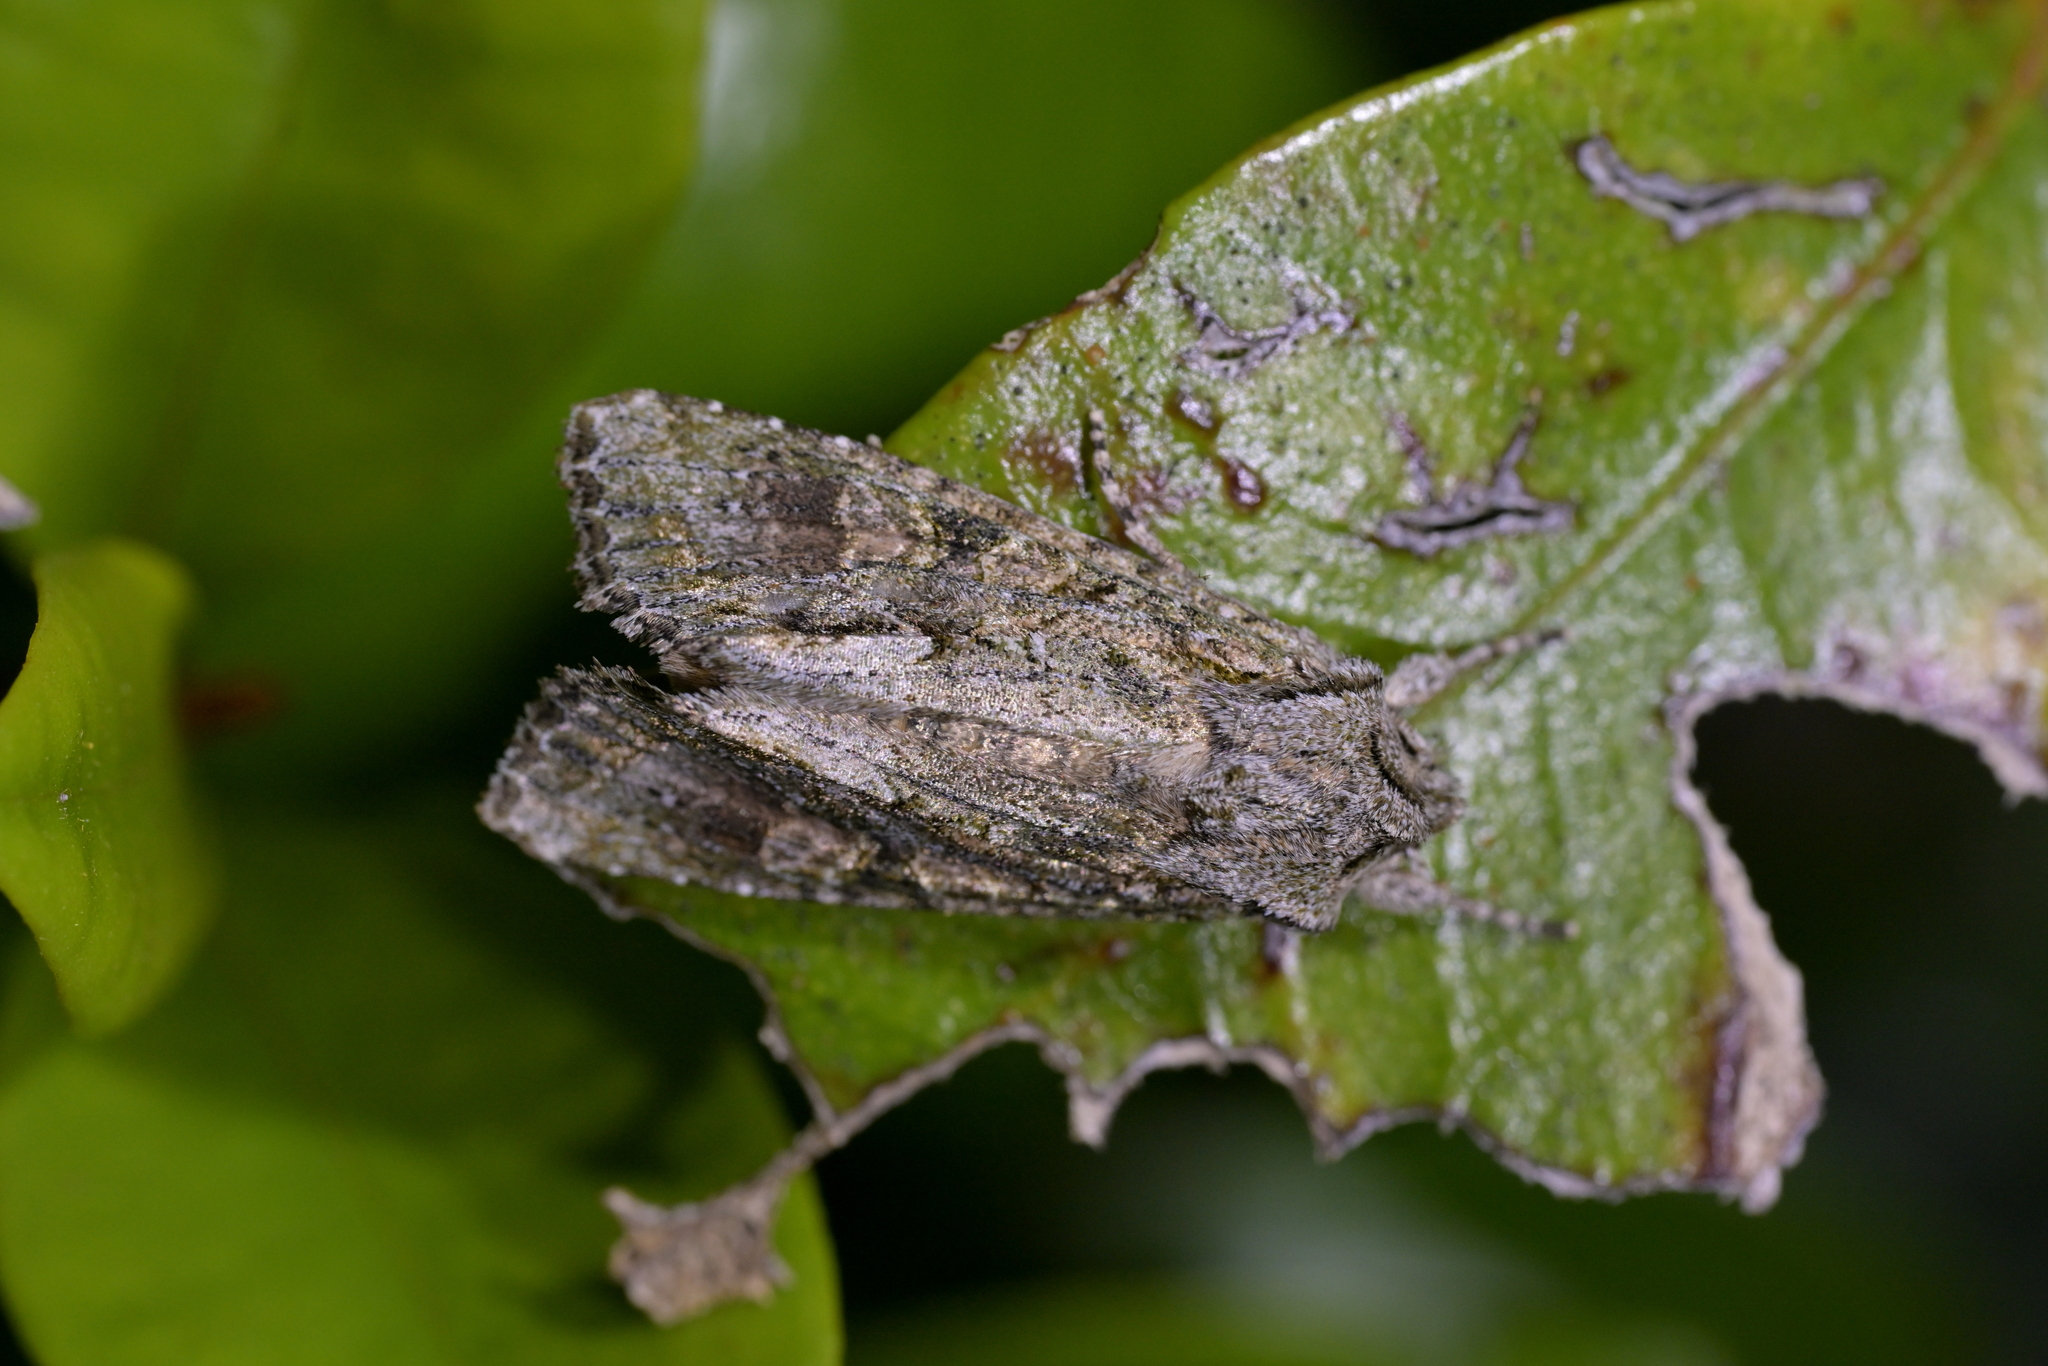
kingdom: Animalia
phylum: Arthropoda
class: Insecta
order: Lepidoptera
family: Noctuidae
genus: Ichneutica
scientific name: Ichneutica mutans
